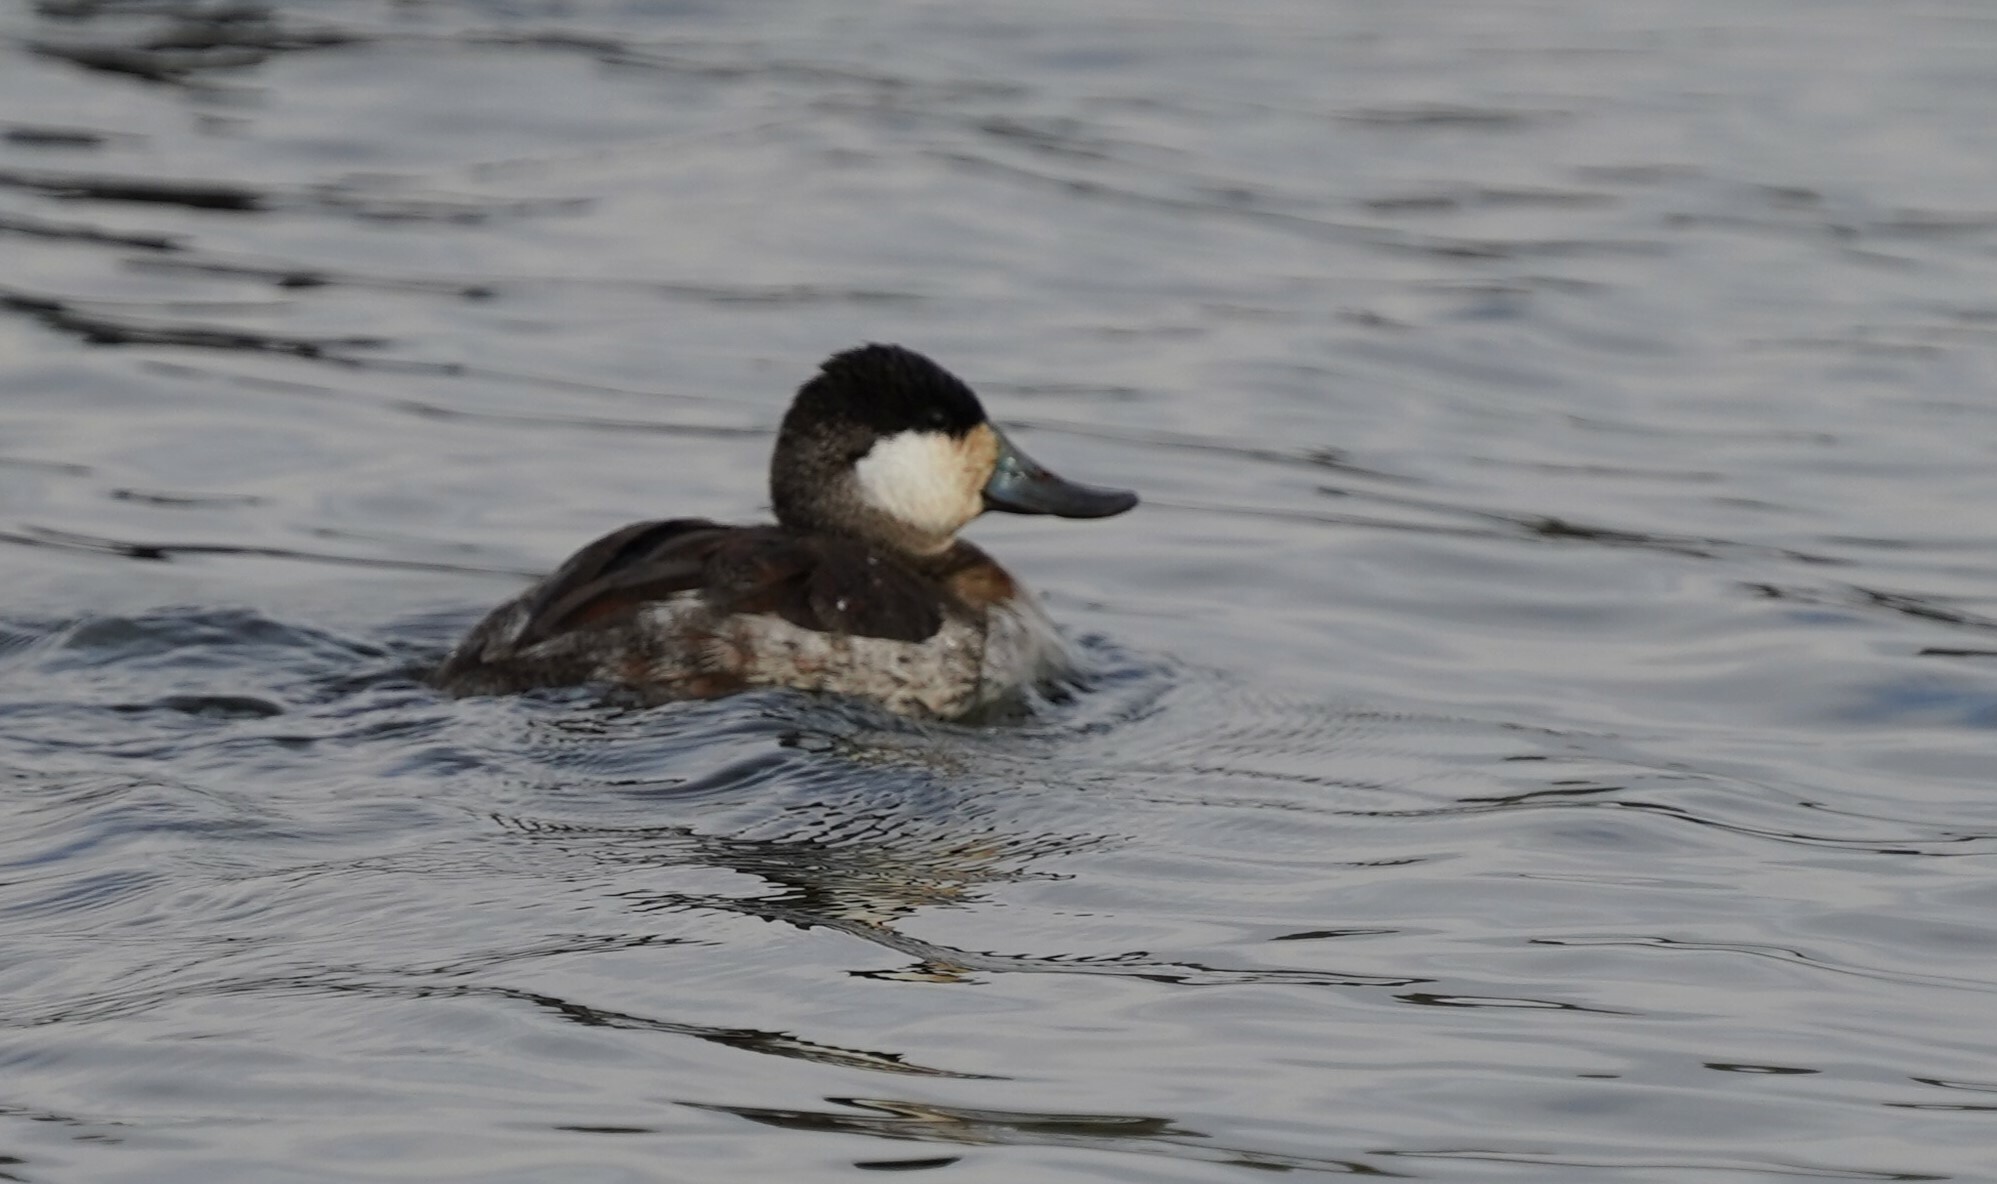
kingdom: Animalia
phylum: Chordata
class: Aves
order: Anseriformes
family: Anatidae
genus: Oxyura
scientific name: Oxyura jamaicensis
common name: Ruddy duck
